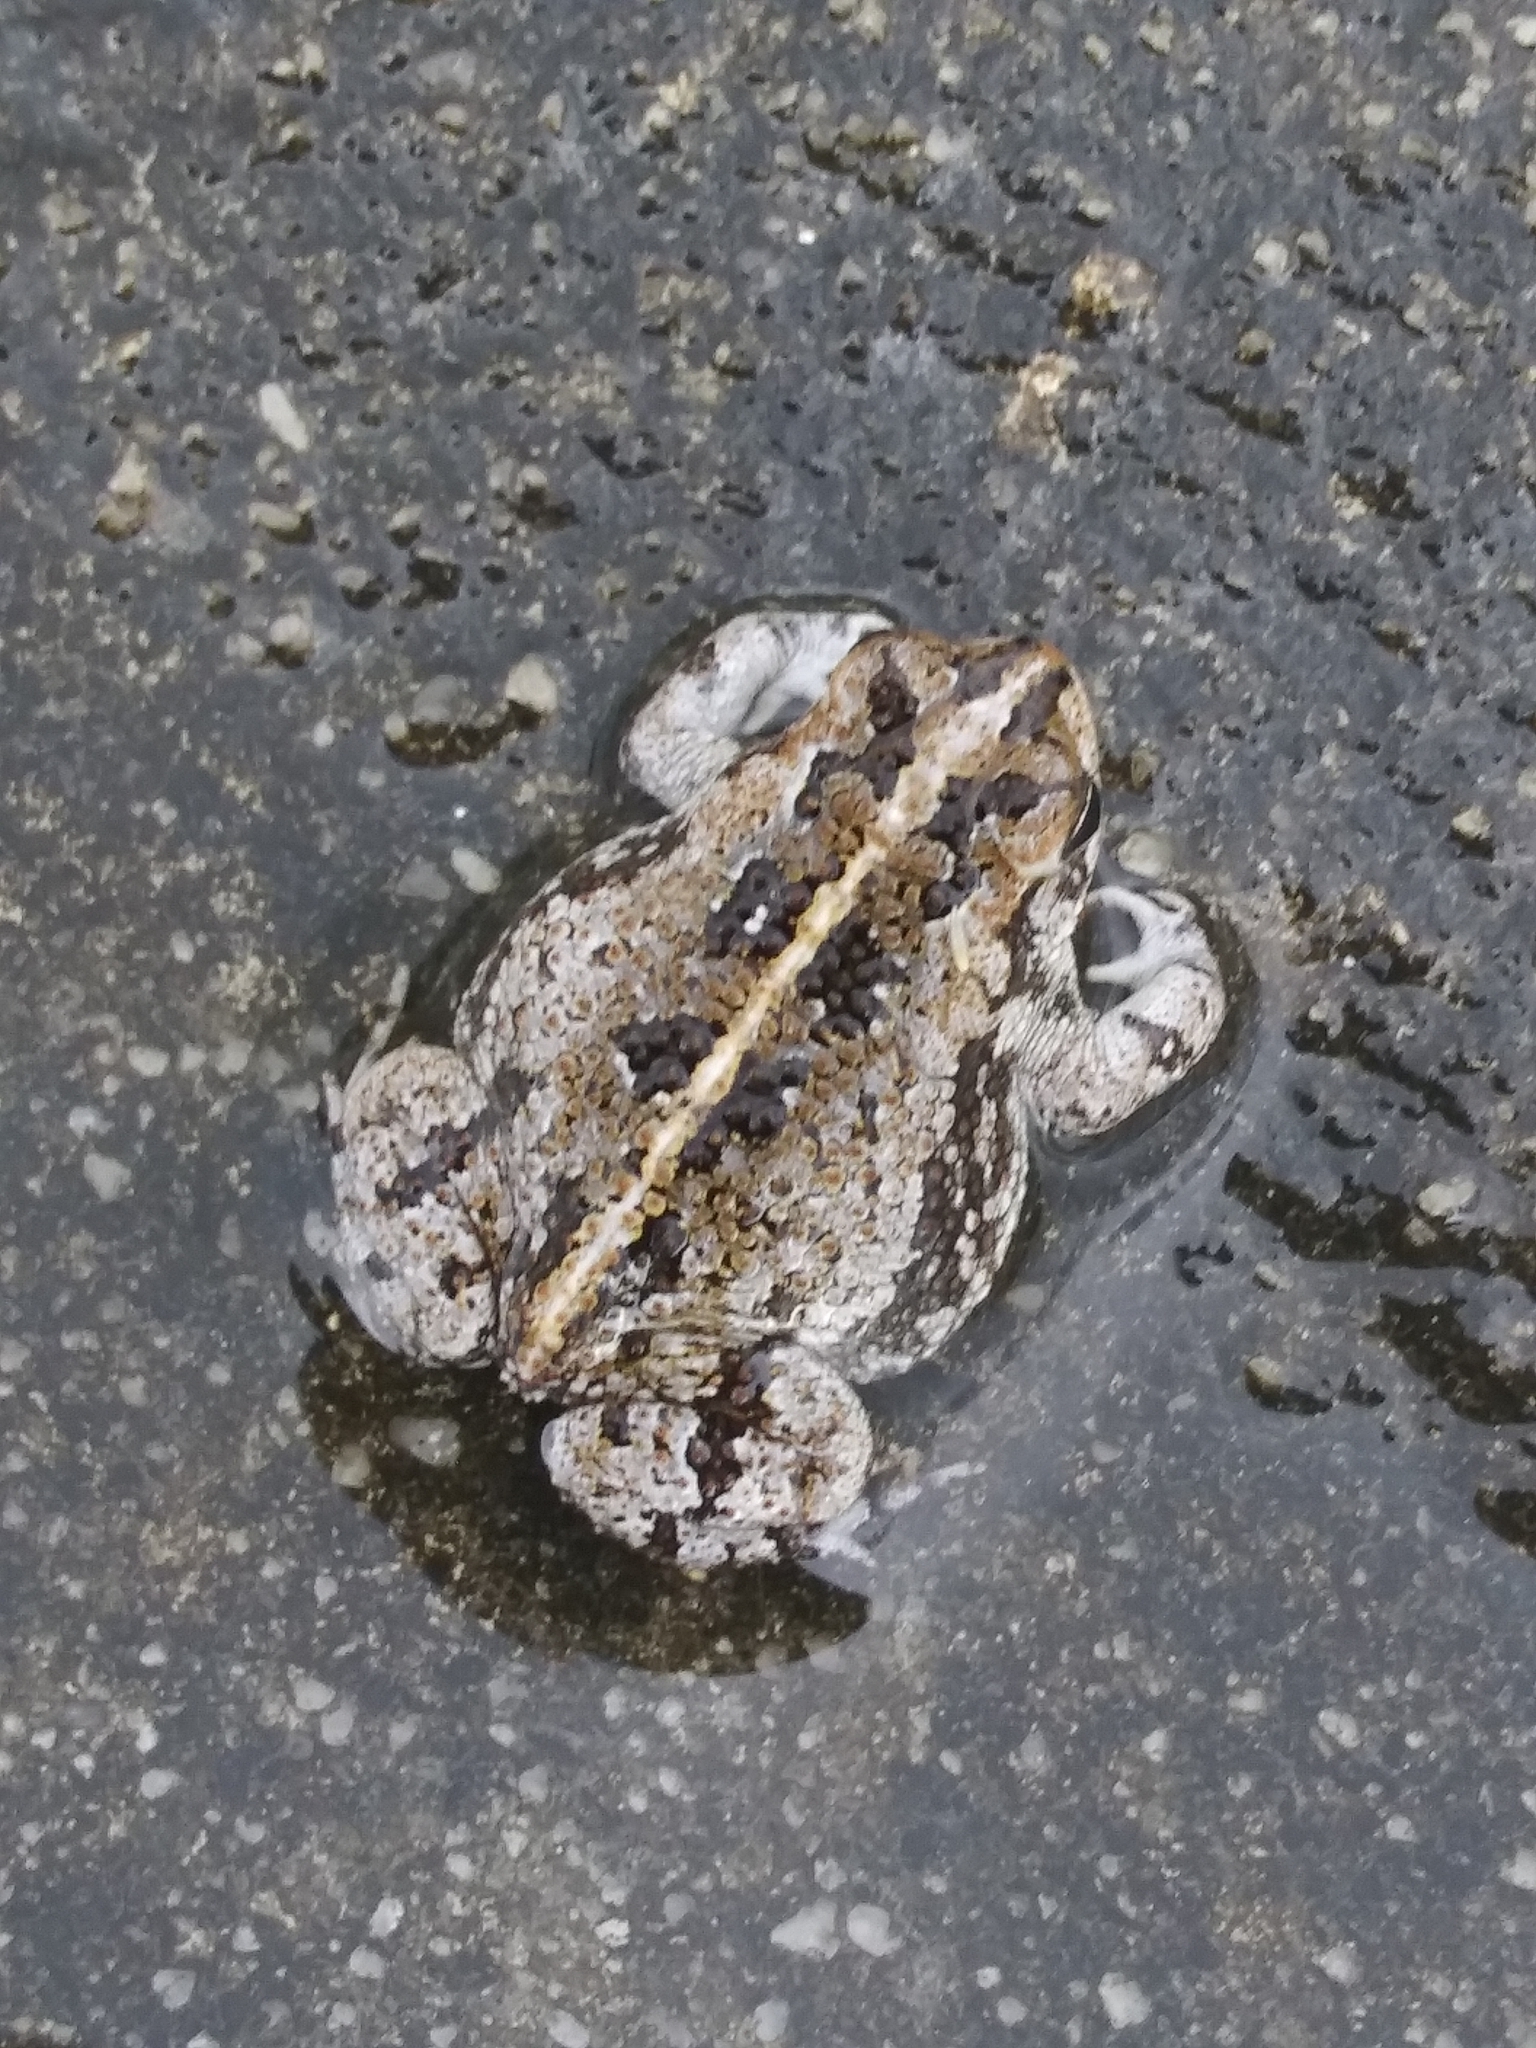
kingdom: Animalia
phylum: Chordata
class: Amphibia
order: Anura
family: Bufonidae
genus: Anaxyrus
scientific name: Anaxyrus quercicus
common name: Oak toad
